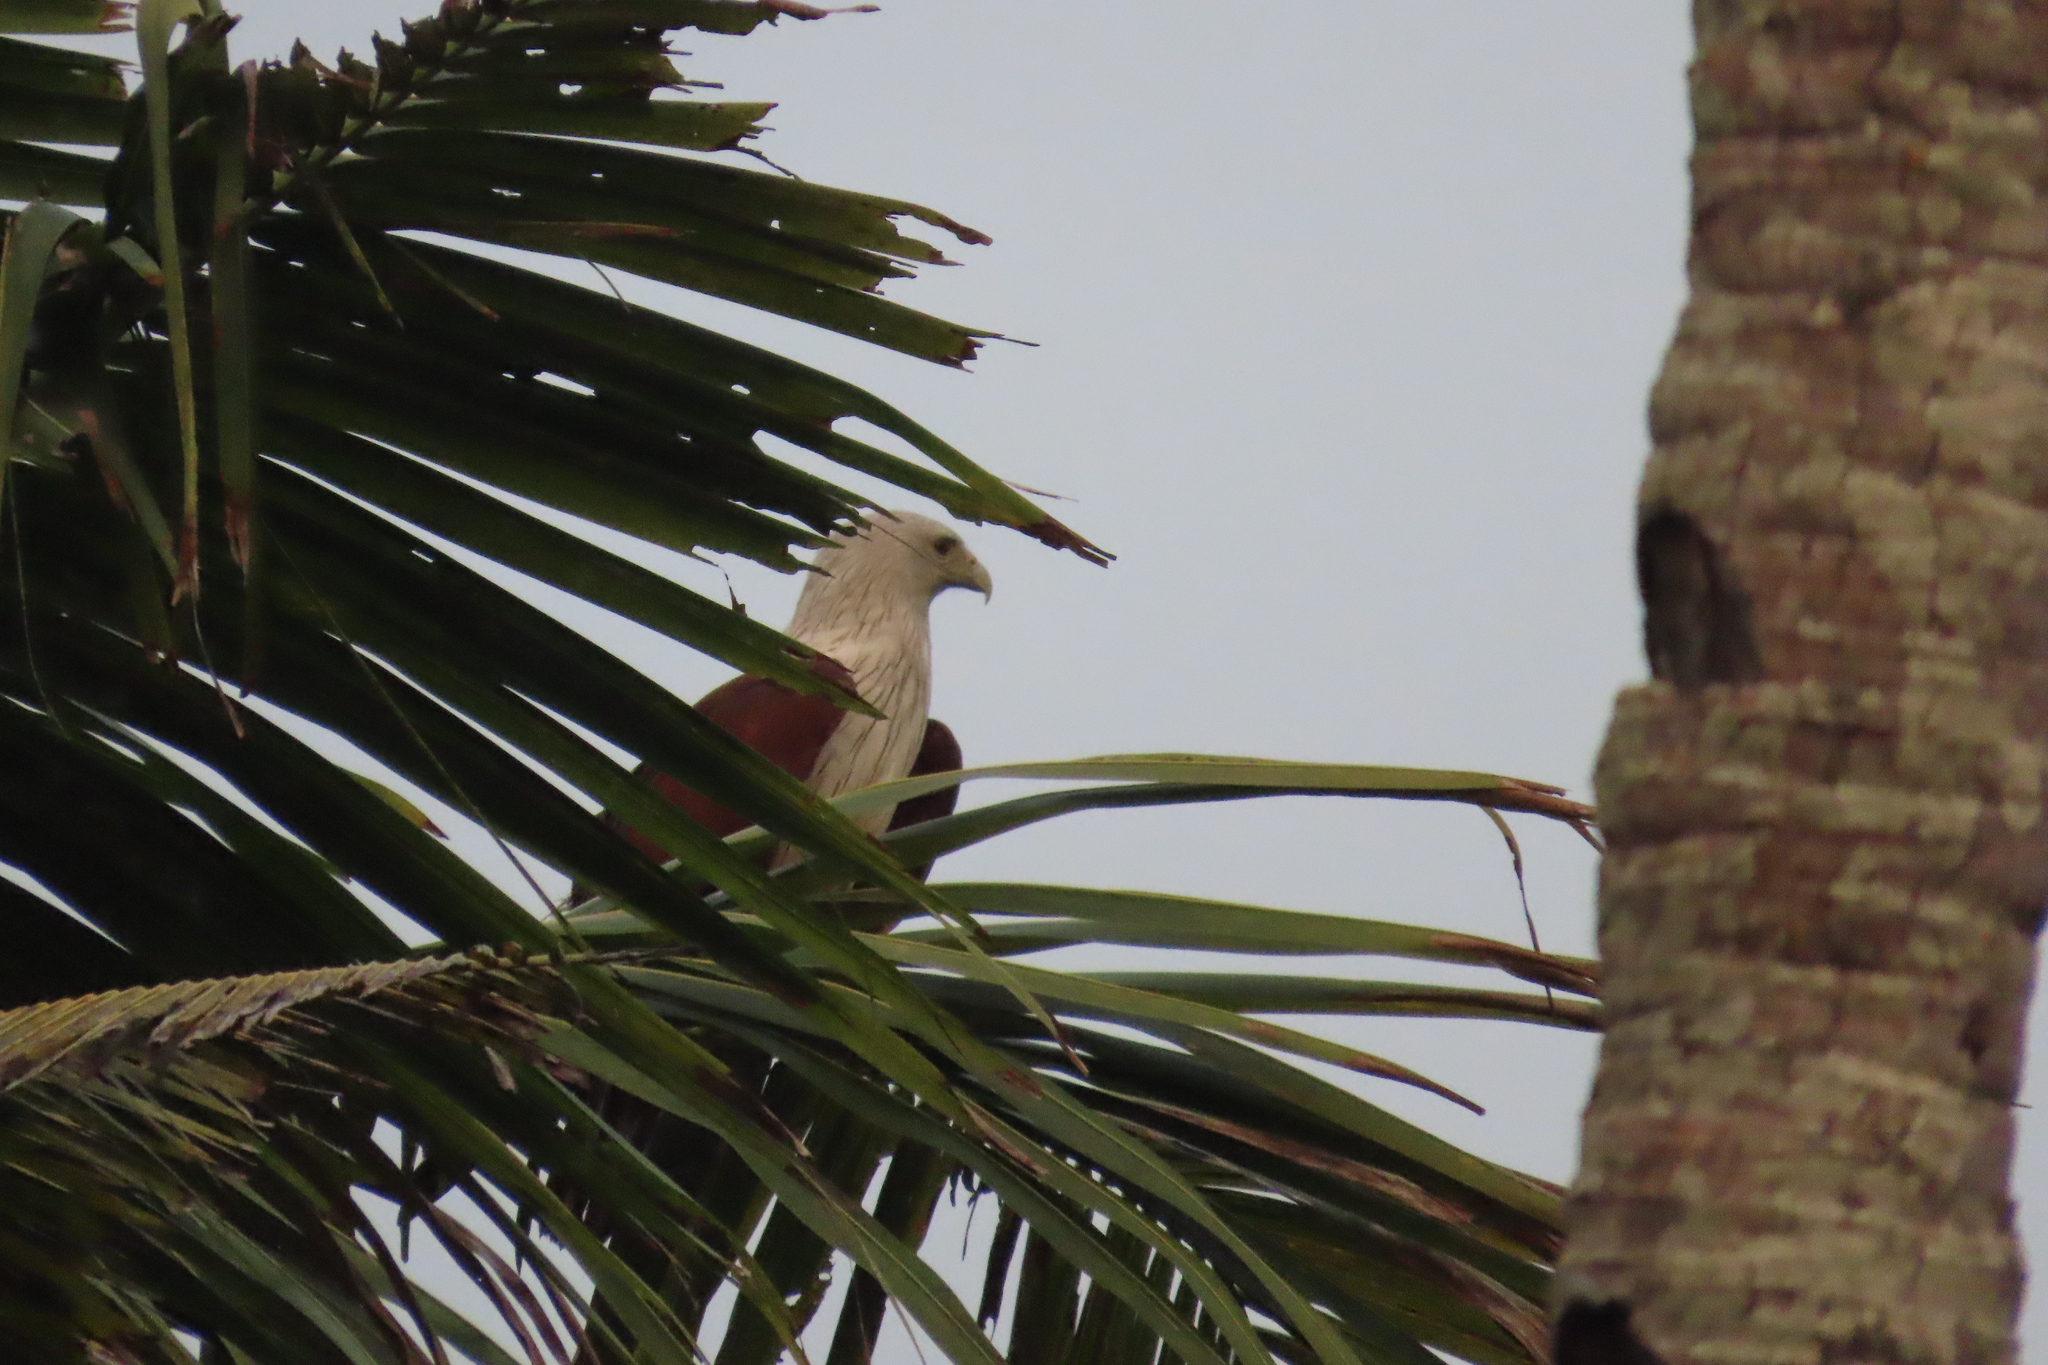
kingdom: Animalia
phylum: Chordata
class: Aves
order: Accipitriformes
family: Accipitridae
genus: Haliastur
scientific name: Haliastur indus
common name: Brahminy kite
